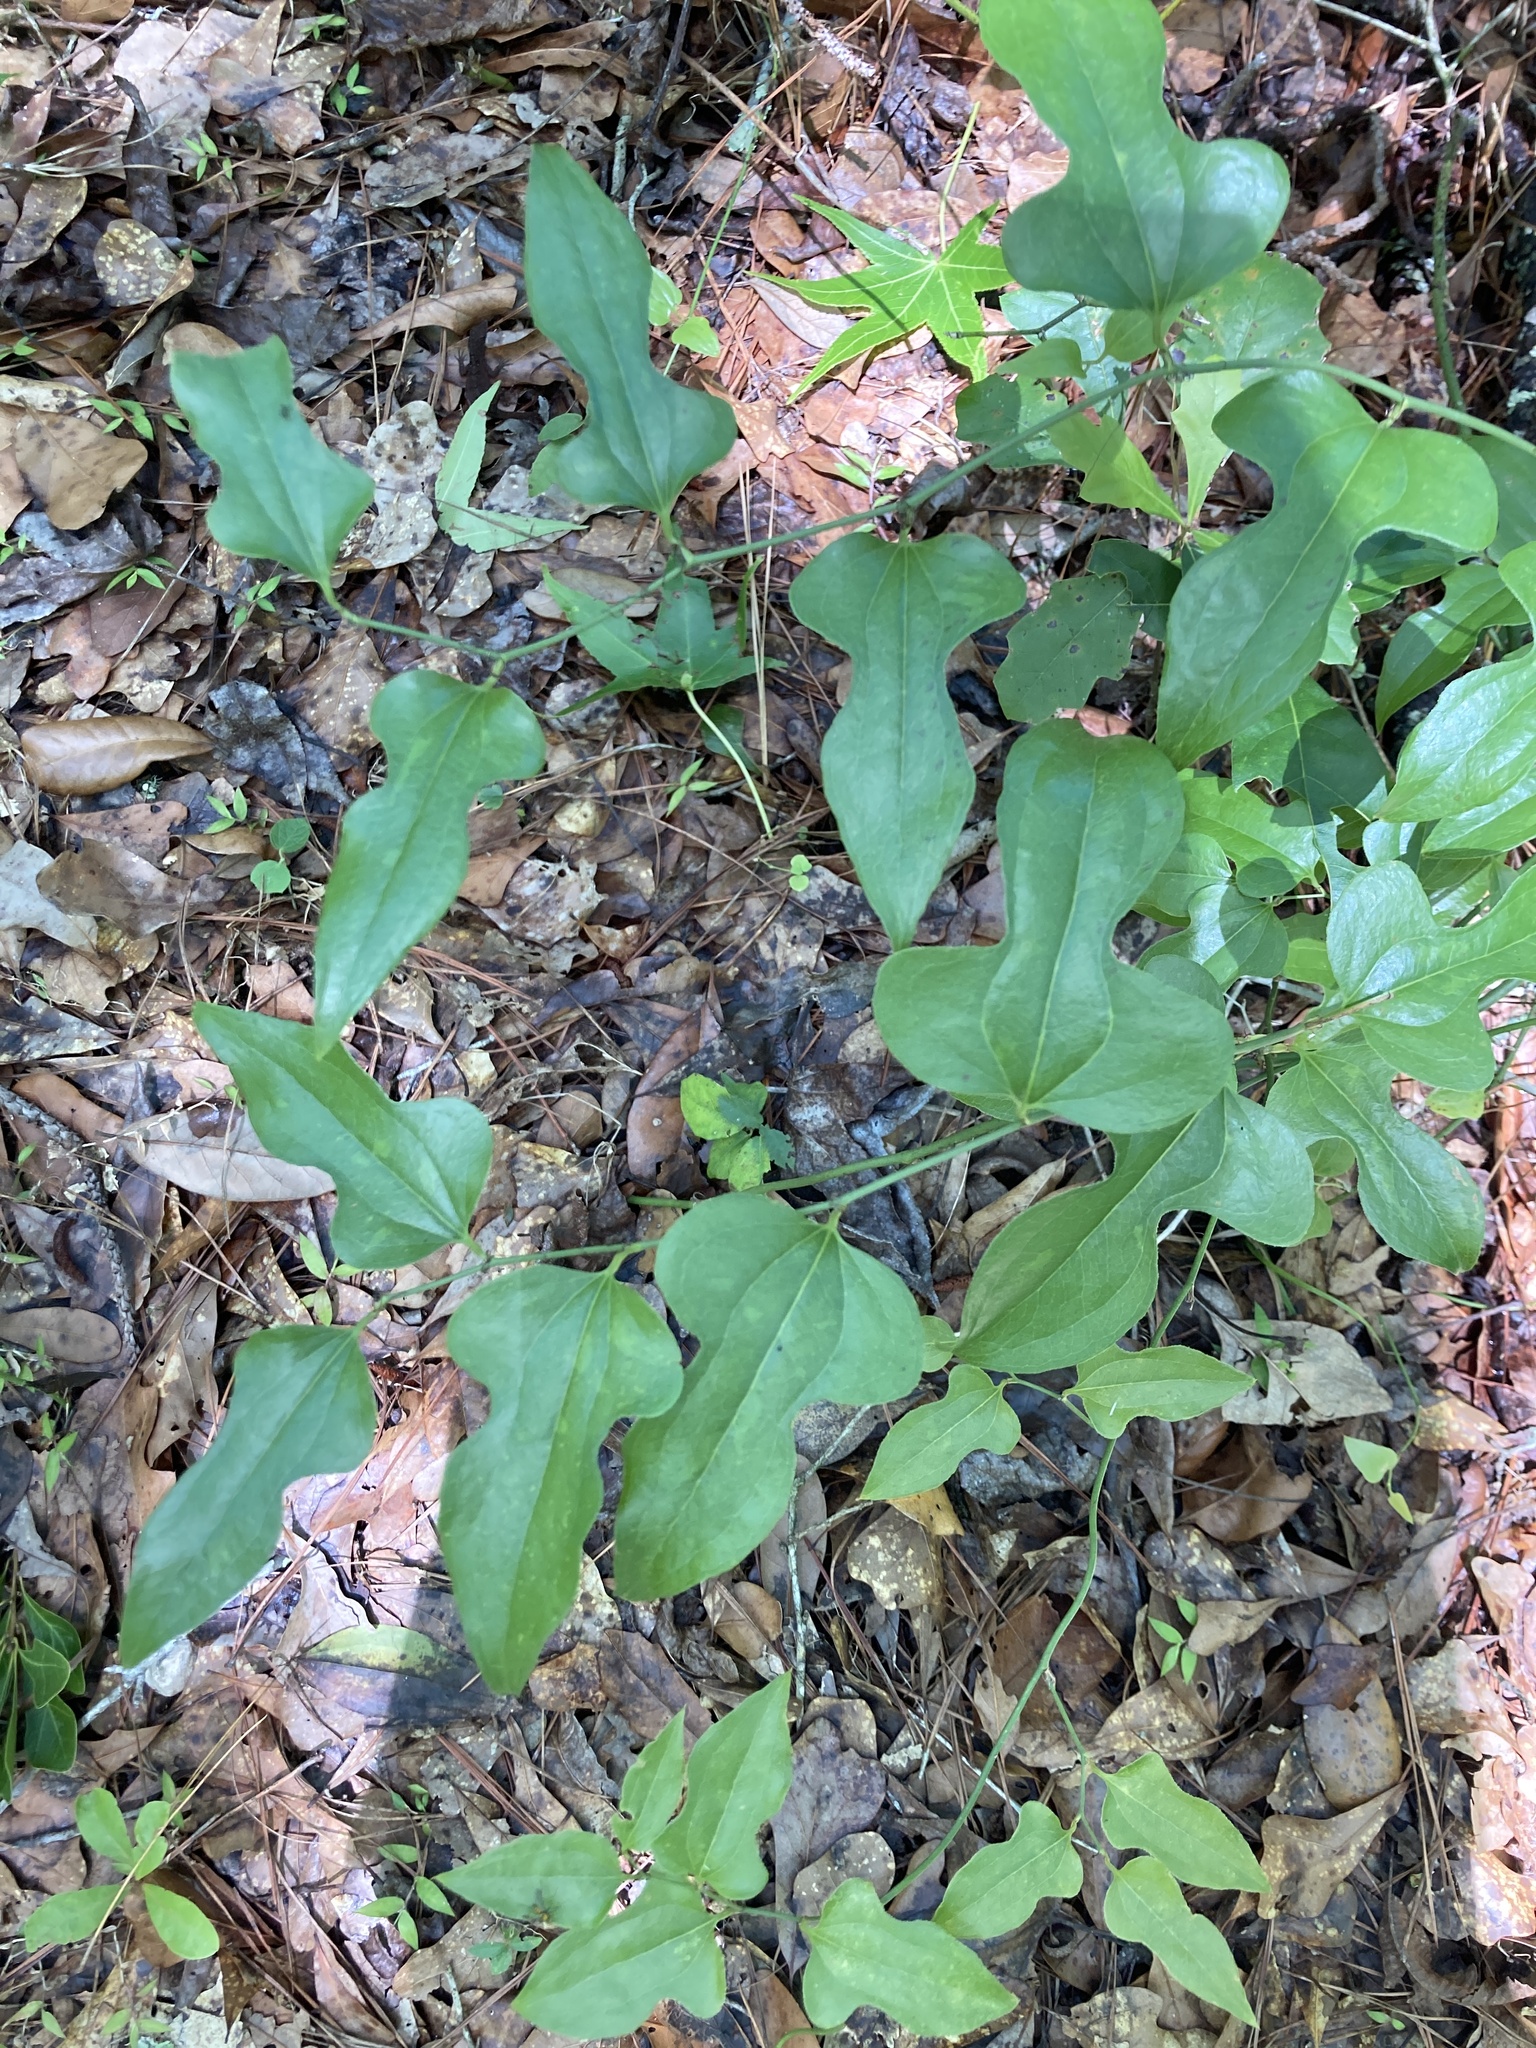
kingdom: Plantae
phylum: Tracheophyta
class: Liliopsida
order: Liliales
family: Smilacaceae
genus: Smilax
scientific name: Smilax tamnoides
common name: Hellfetter
